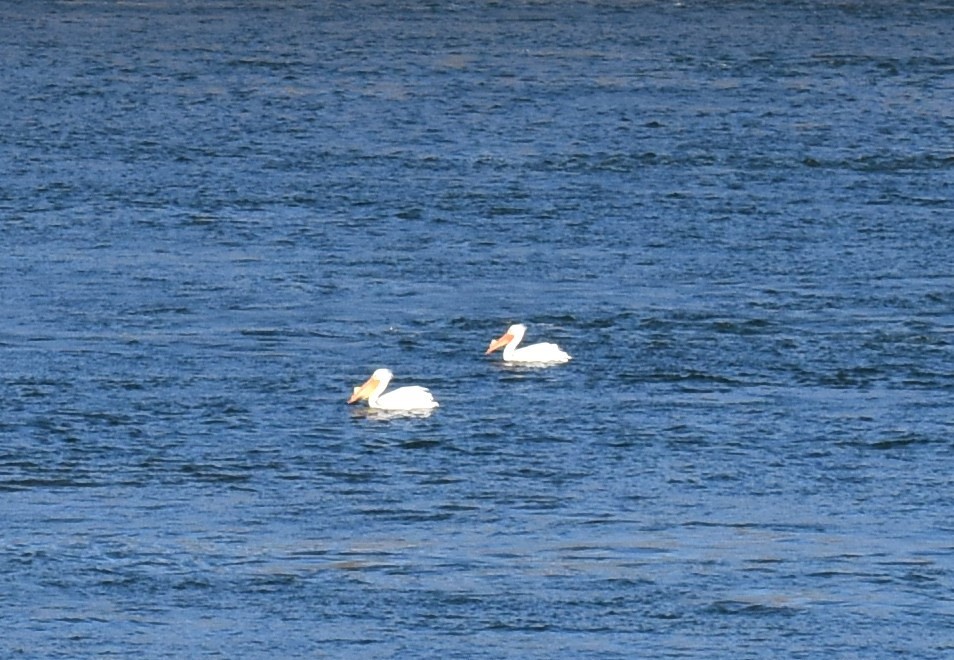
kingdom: Animalia
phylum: Chordata
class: Aves
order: Pelecaniformes
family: Pelecanidae
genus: Pelecanus
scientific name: Pelecanus erythrorhynchos
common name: American white pelican
